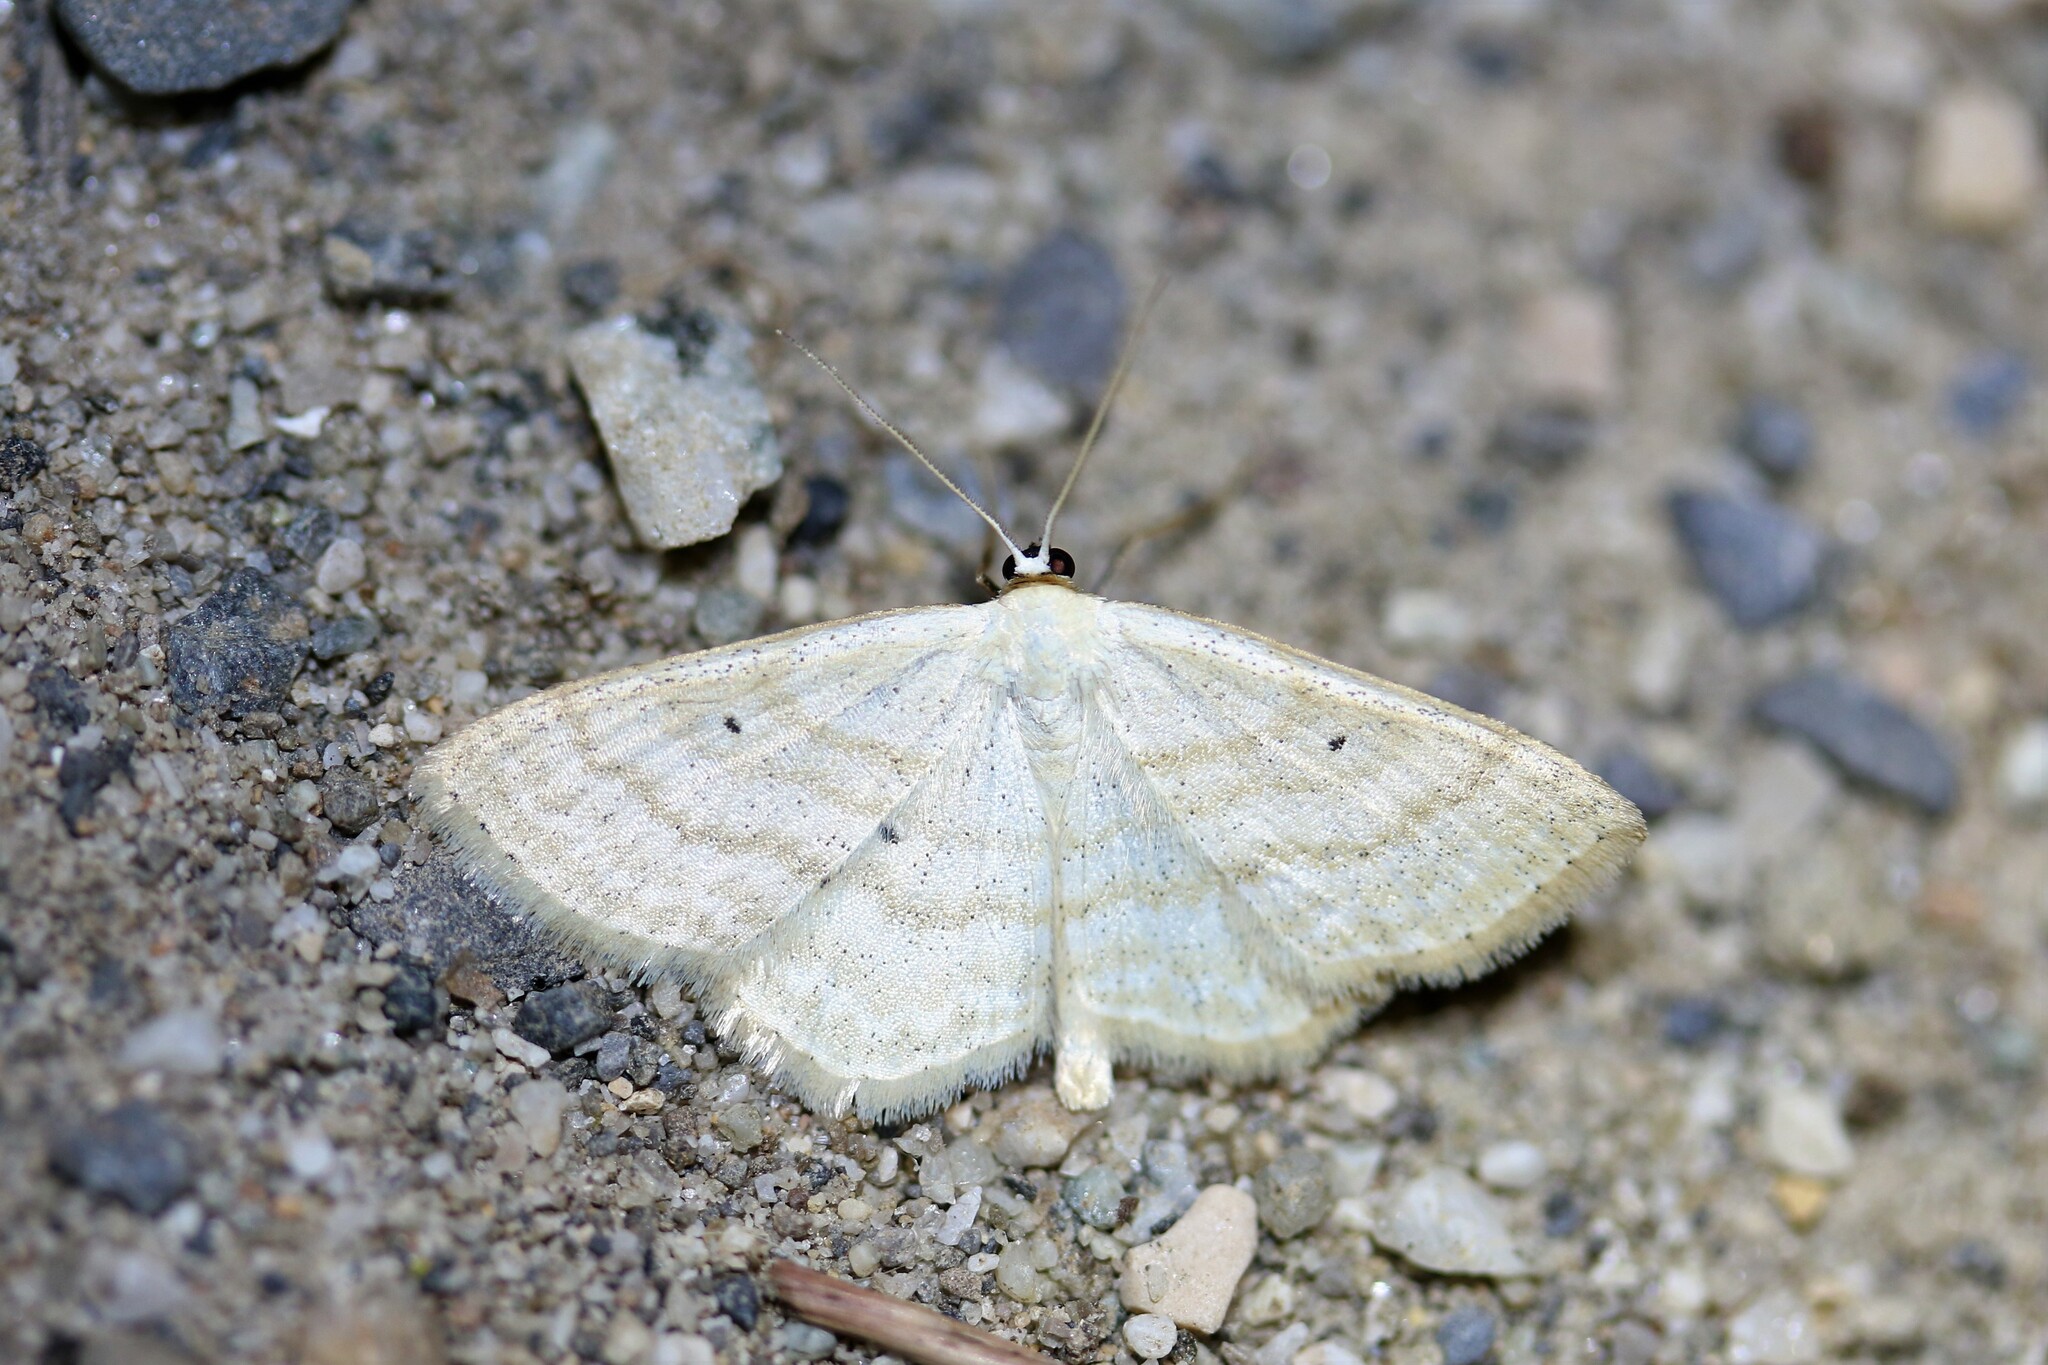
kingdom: Animalia
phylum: Arthropoda
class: Insecta
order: Lepidoptera
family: Geometridae
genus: Scopula
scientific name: Scopula immutata
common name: Lesser cream wave
